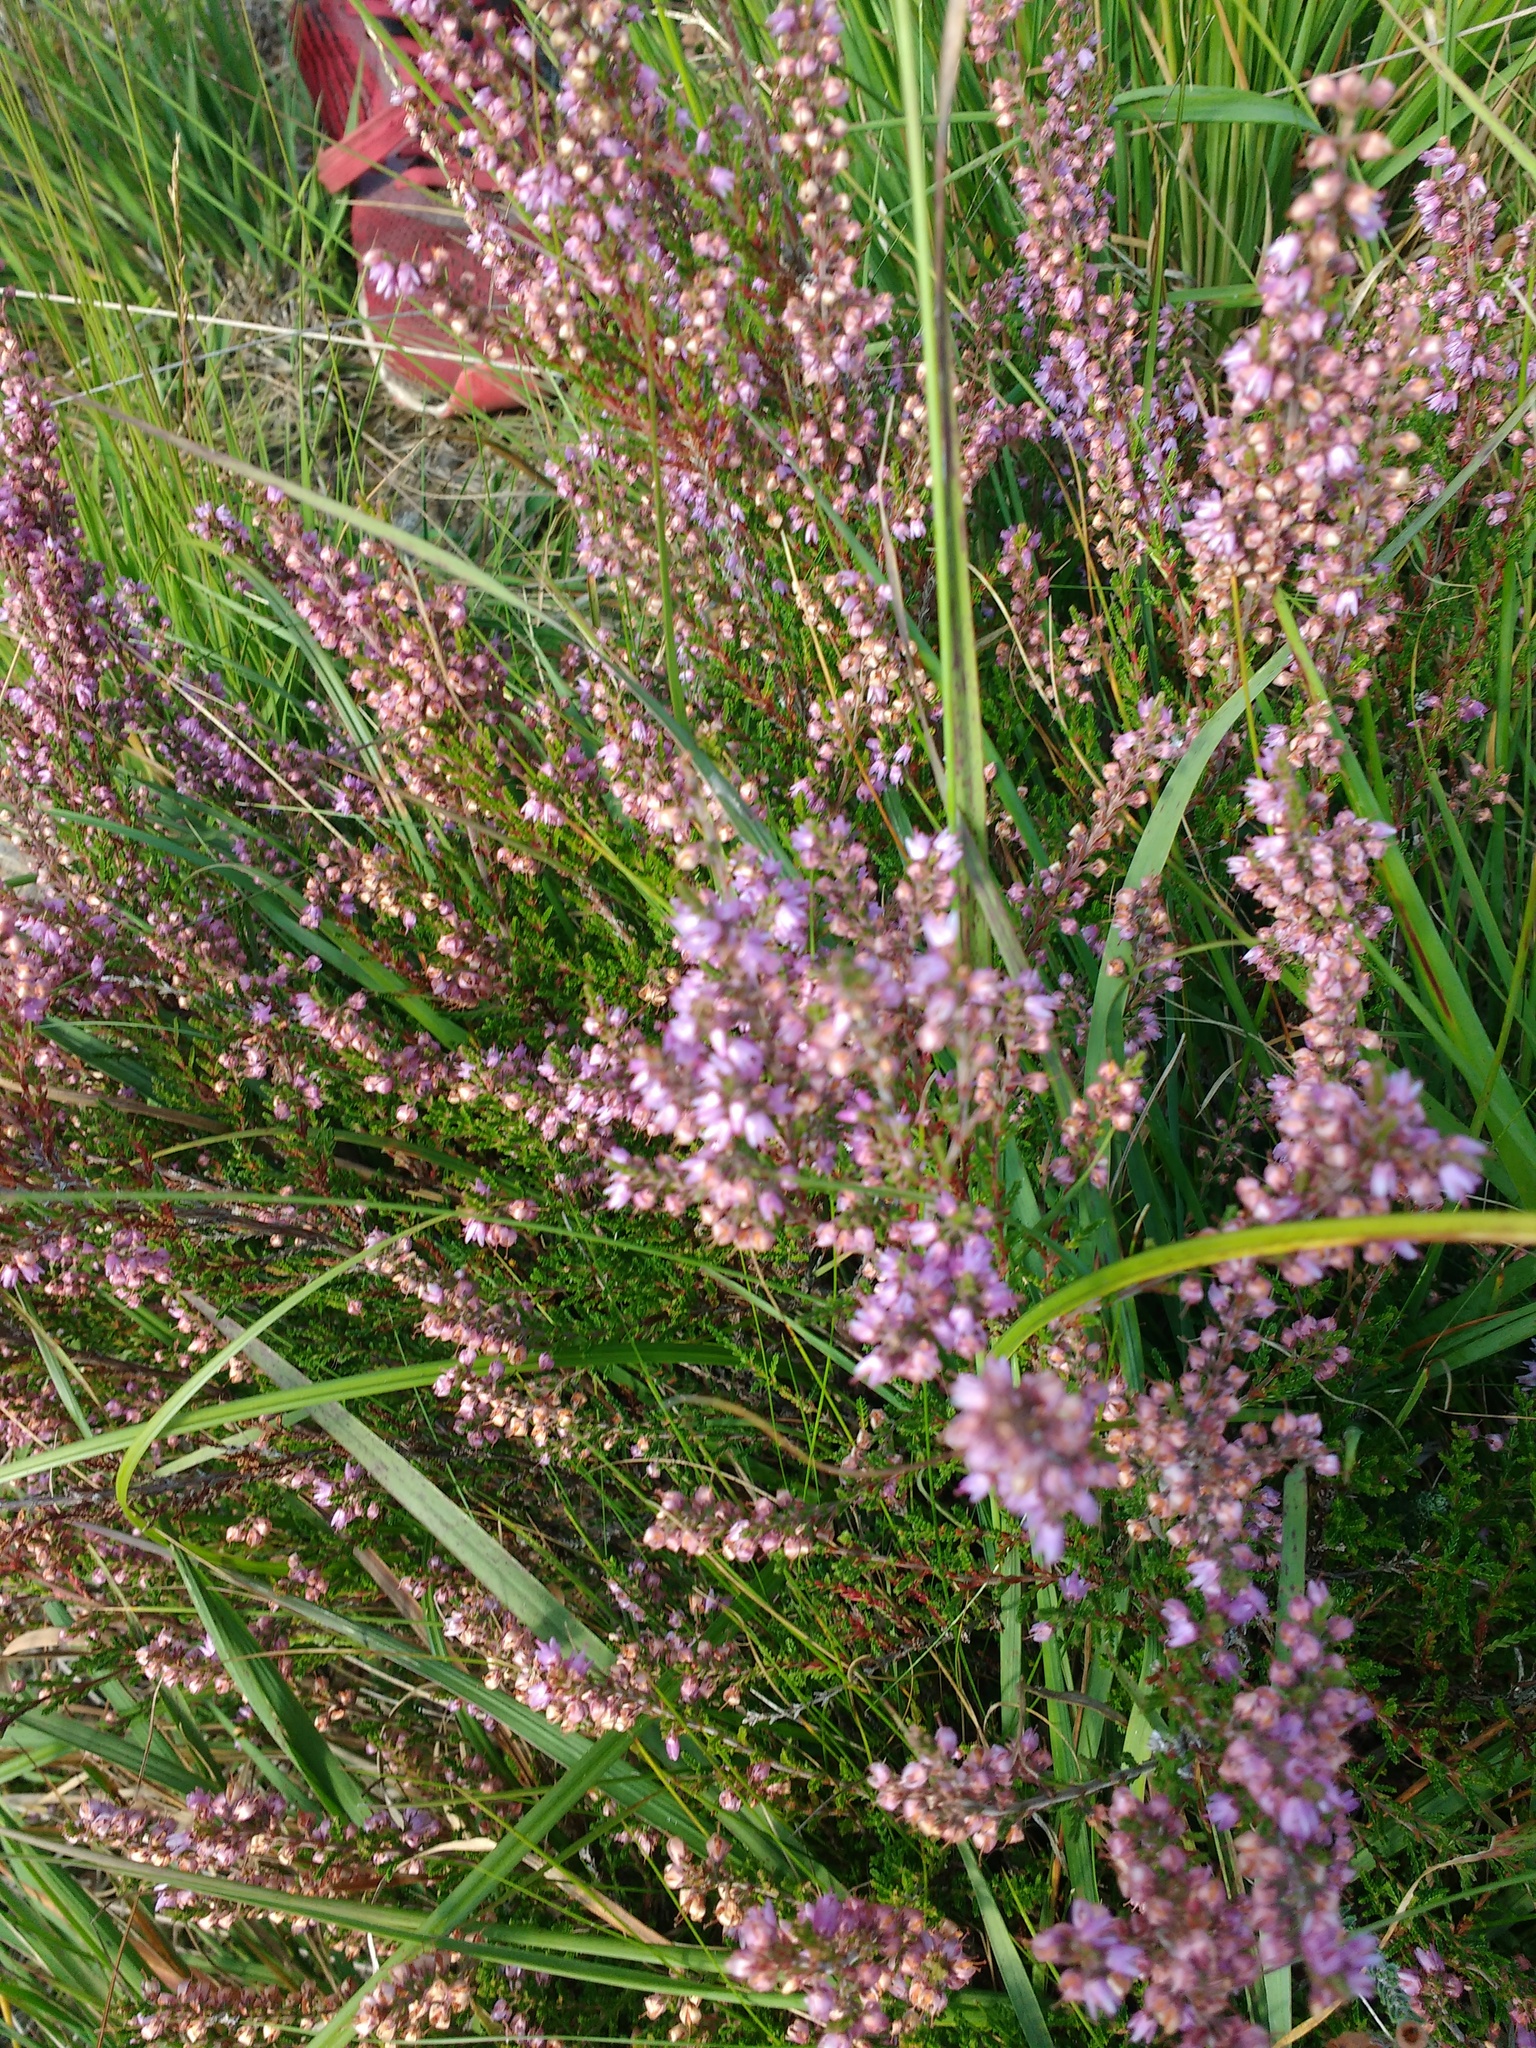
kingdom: Plantae
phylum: Tracheophyta
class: Magnoliopsida
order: Ericales
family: Ericaceae
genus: Calluna
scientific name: Calluna vulgaris
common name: Heather
